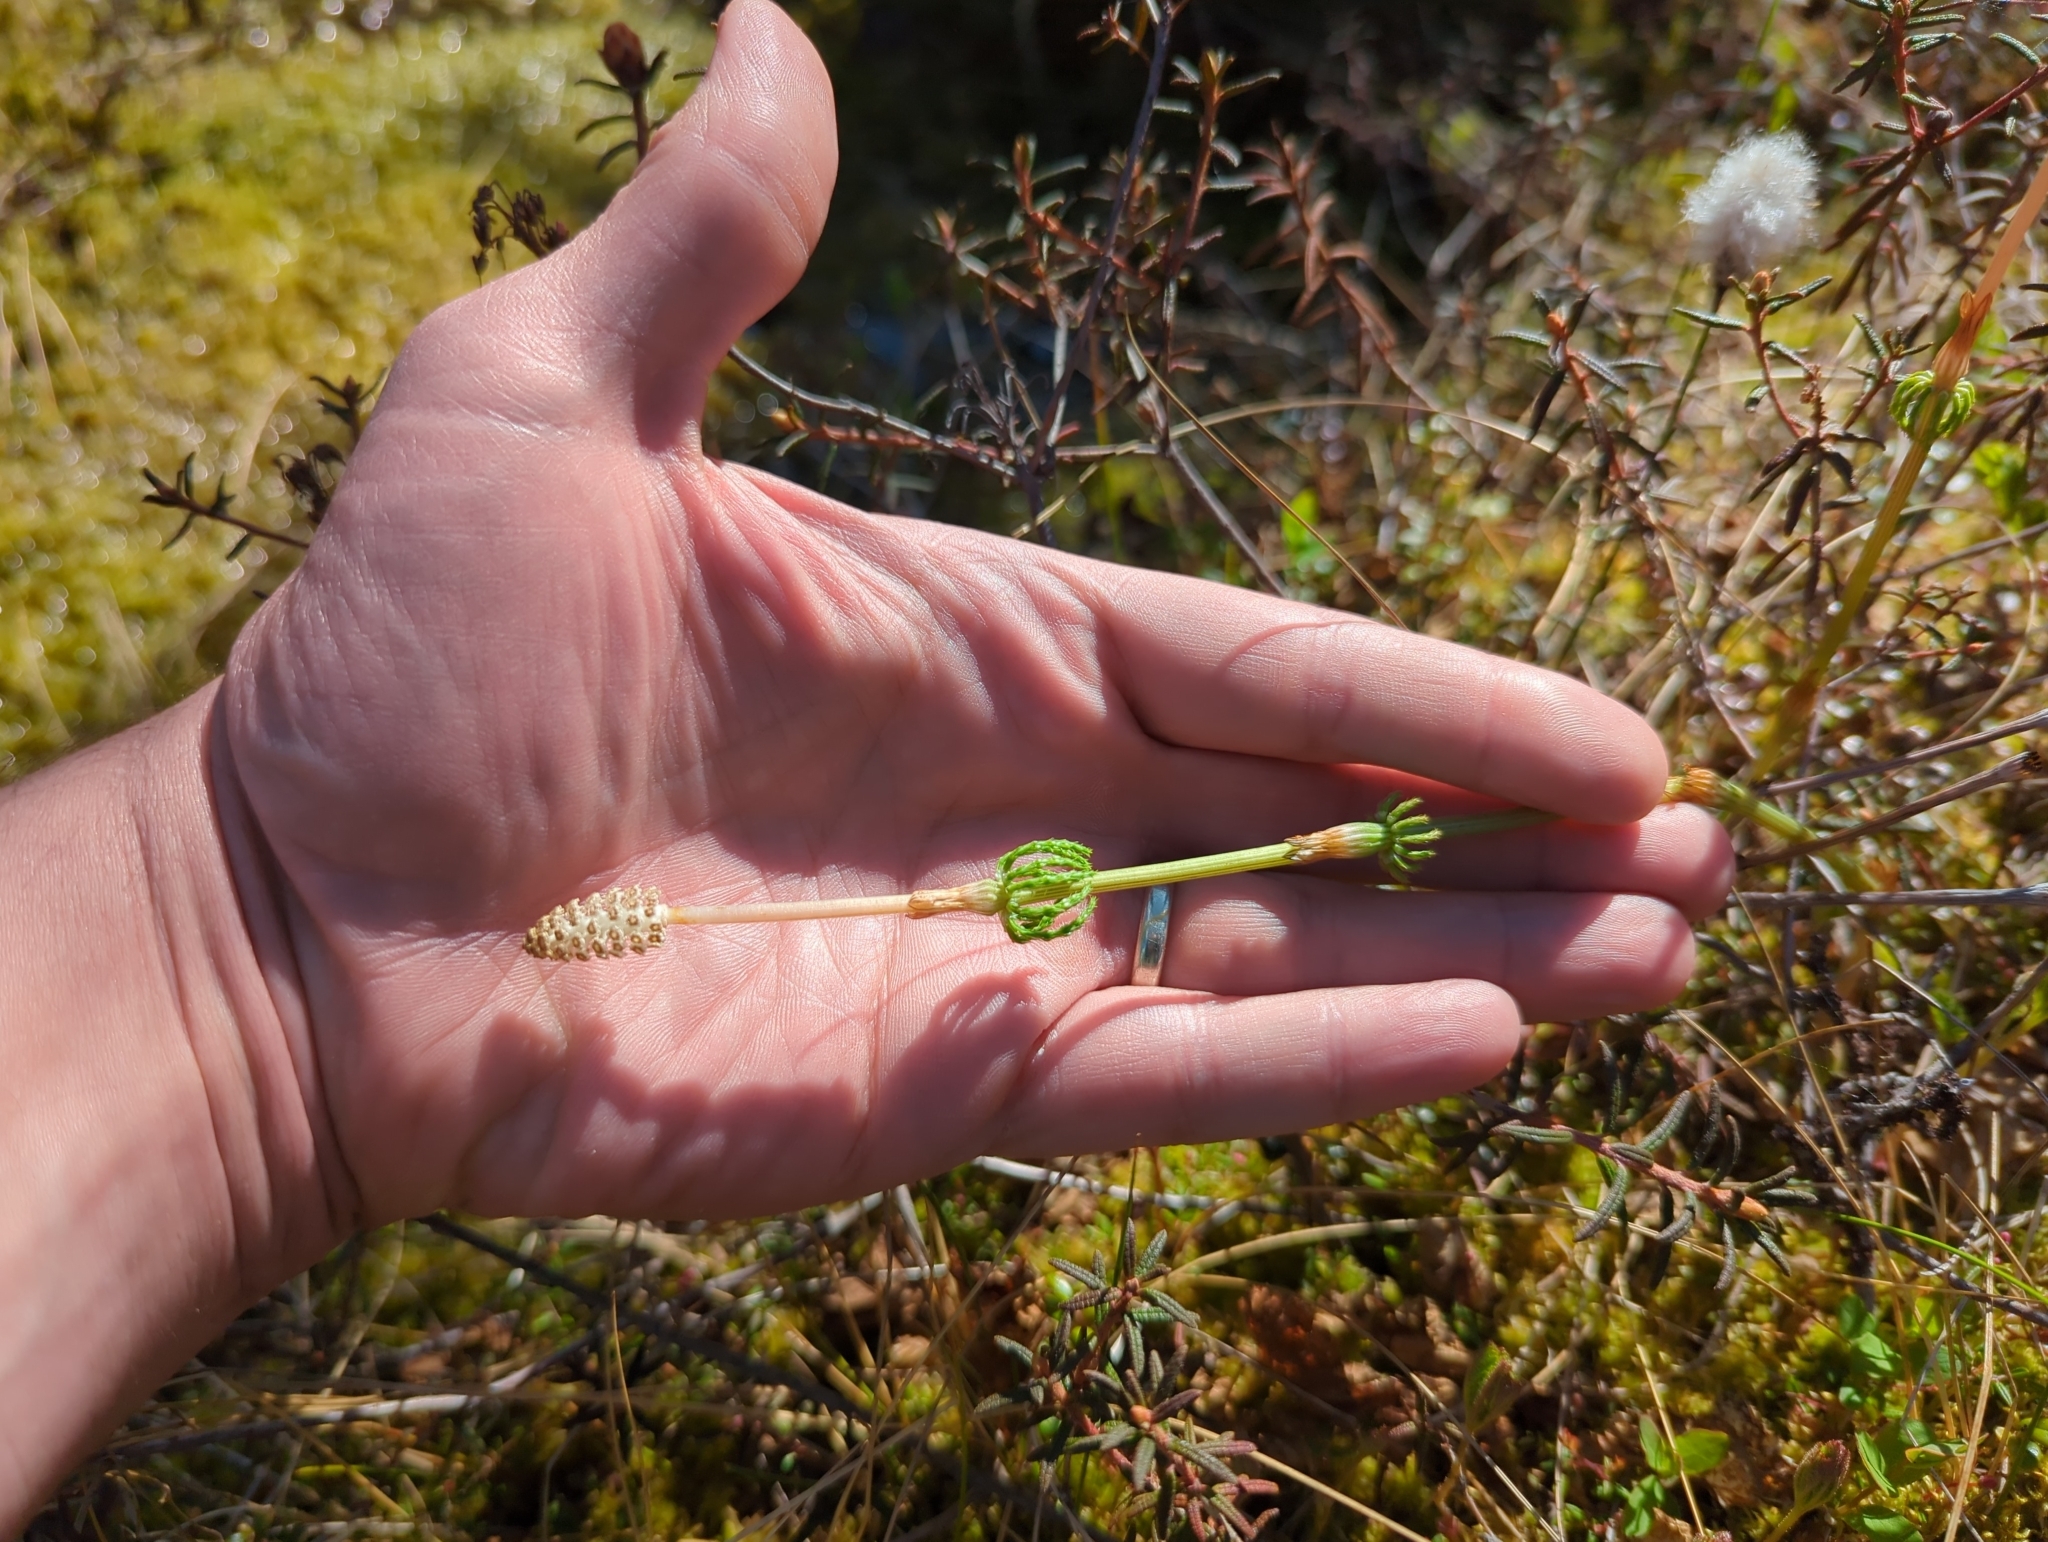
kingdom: Plantae
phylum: Tracheophyta
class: Polypodiopsida
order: Equisetales
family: Equisetaceae
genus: Equisetum
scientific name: Equisetum sylvaticum
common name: Wood horsetail
